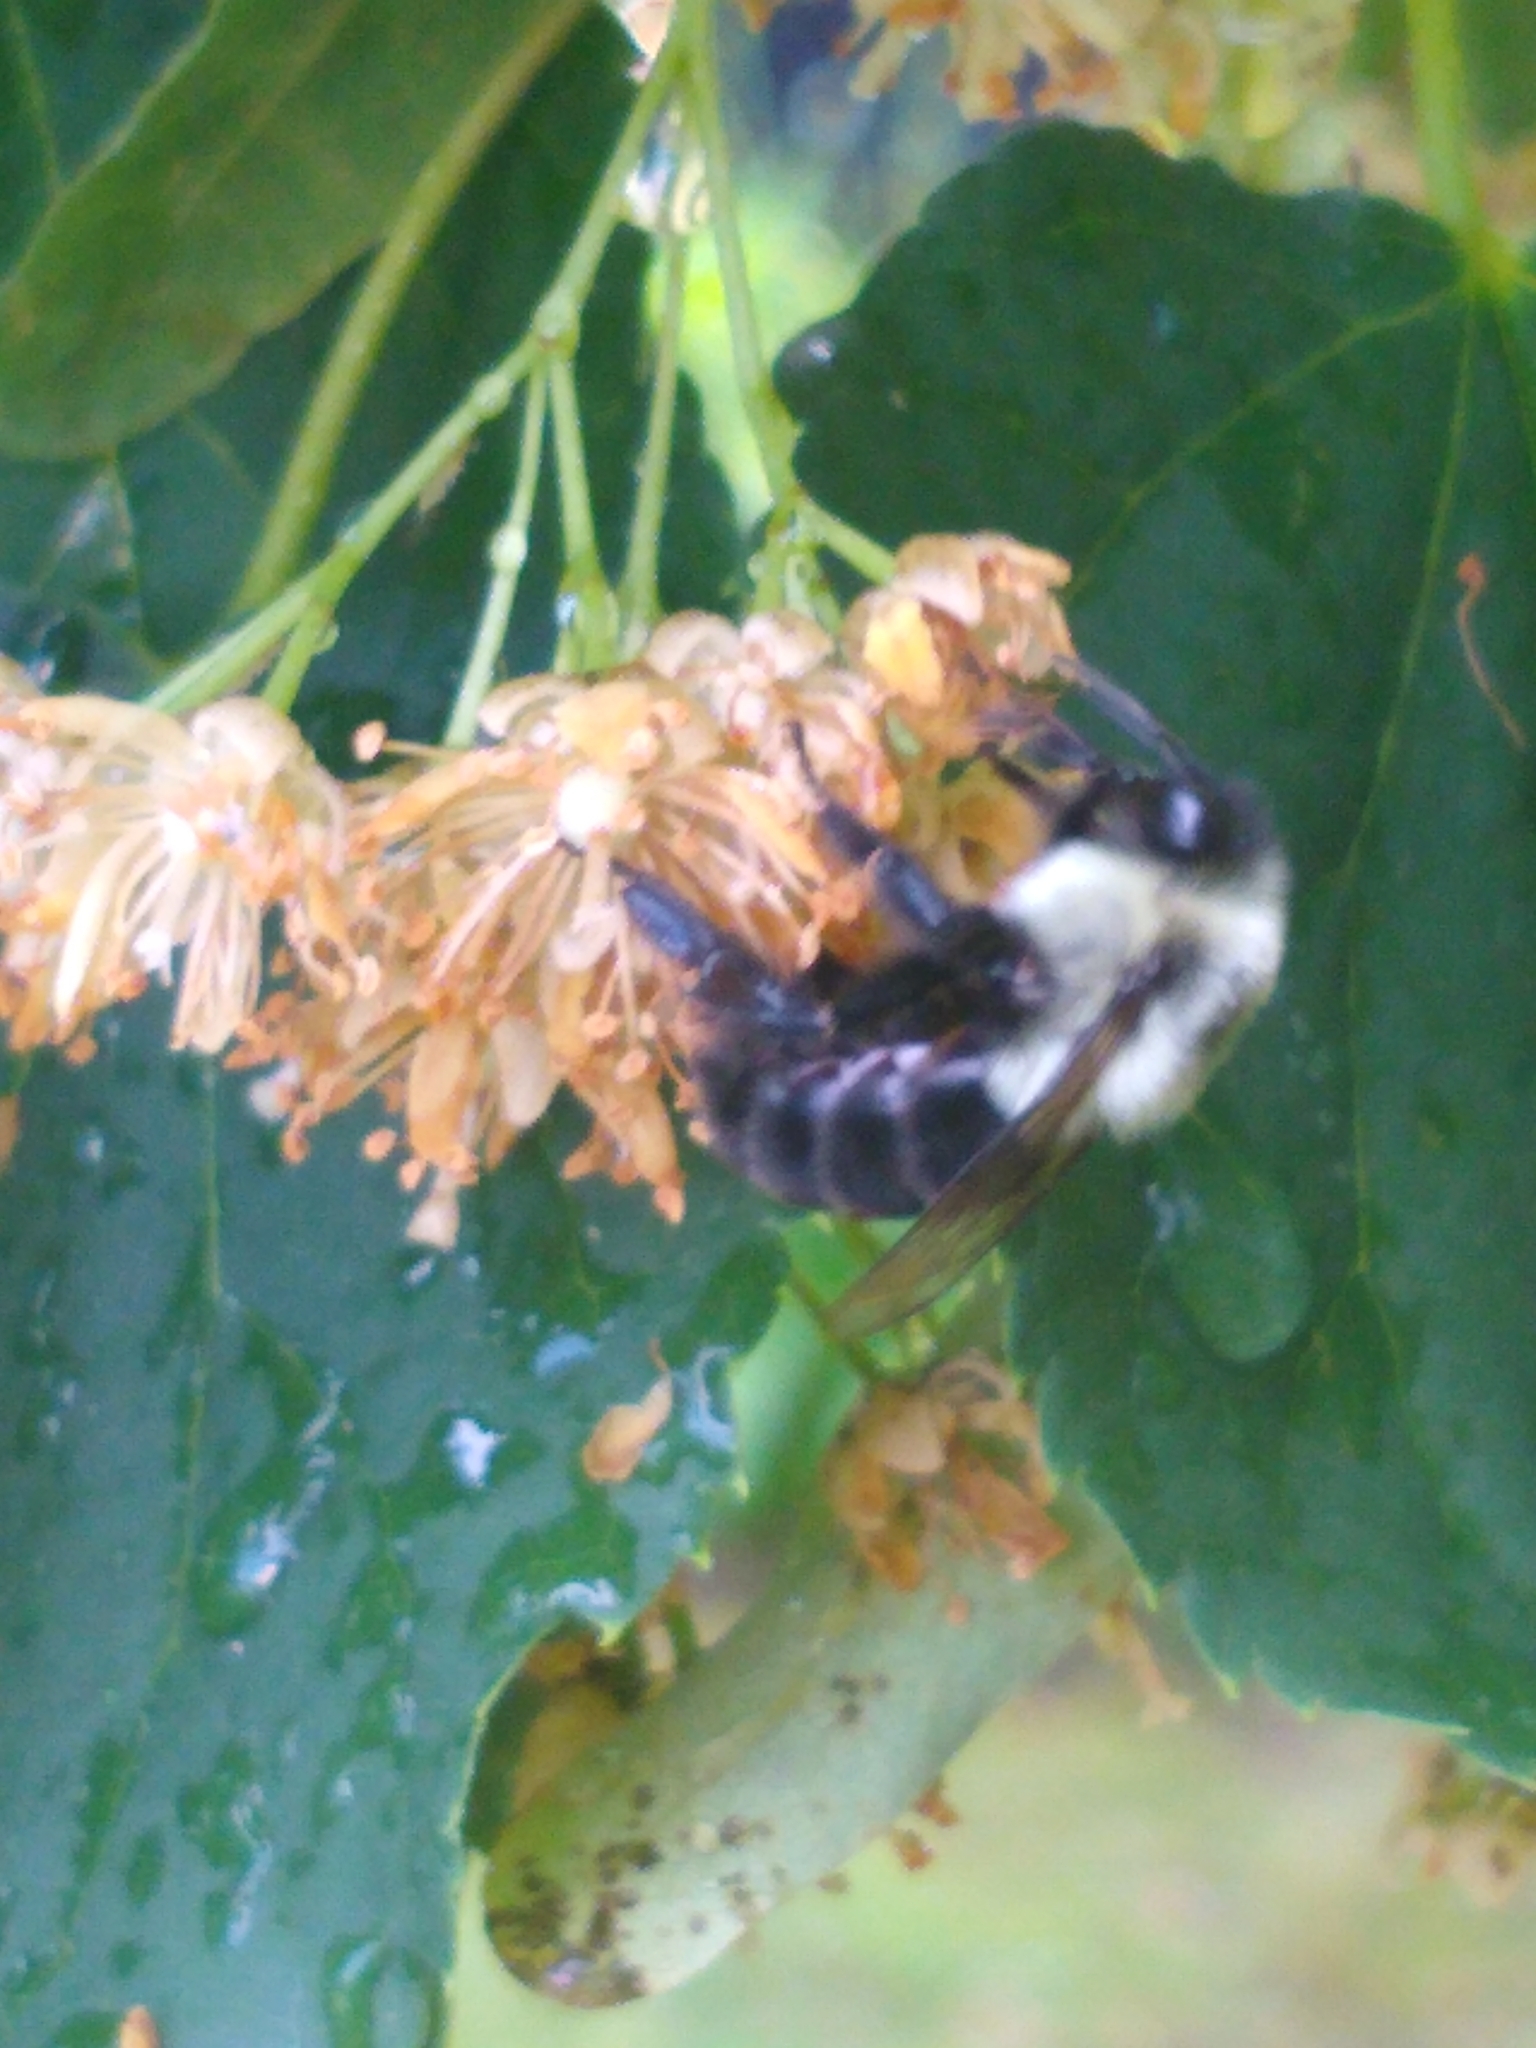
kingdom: Animalia
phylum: Arthropoda
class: Insecta
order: Hymenoptera
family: Apidae
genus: Bombus
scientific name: Bombus impatiens
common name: Common eastern bumble bee
